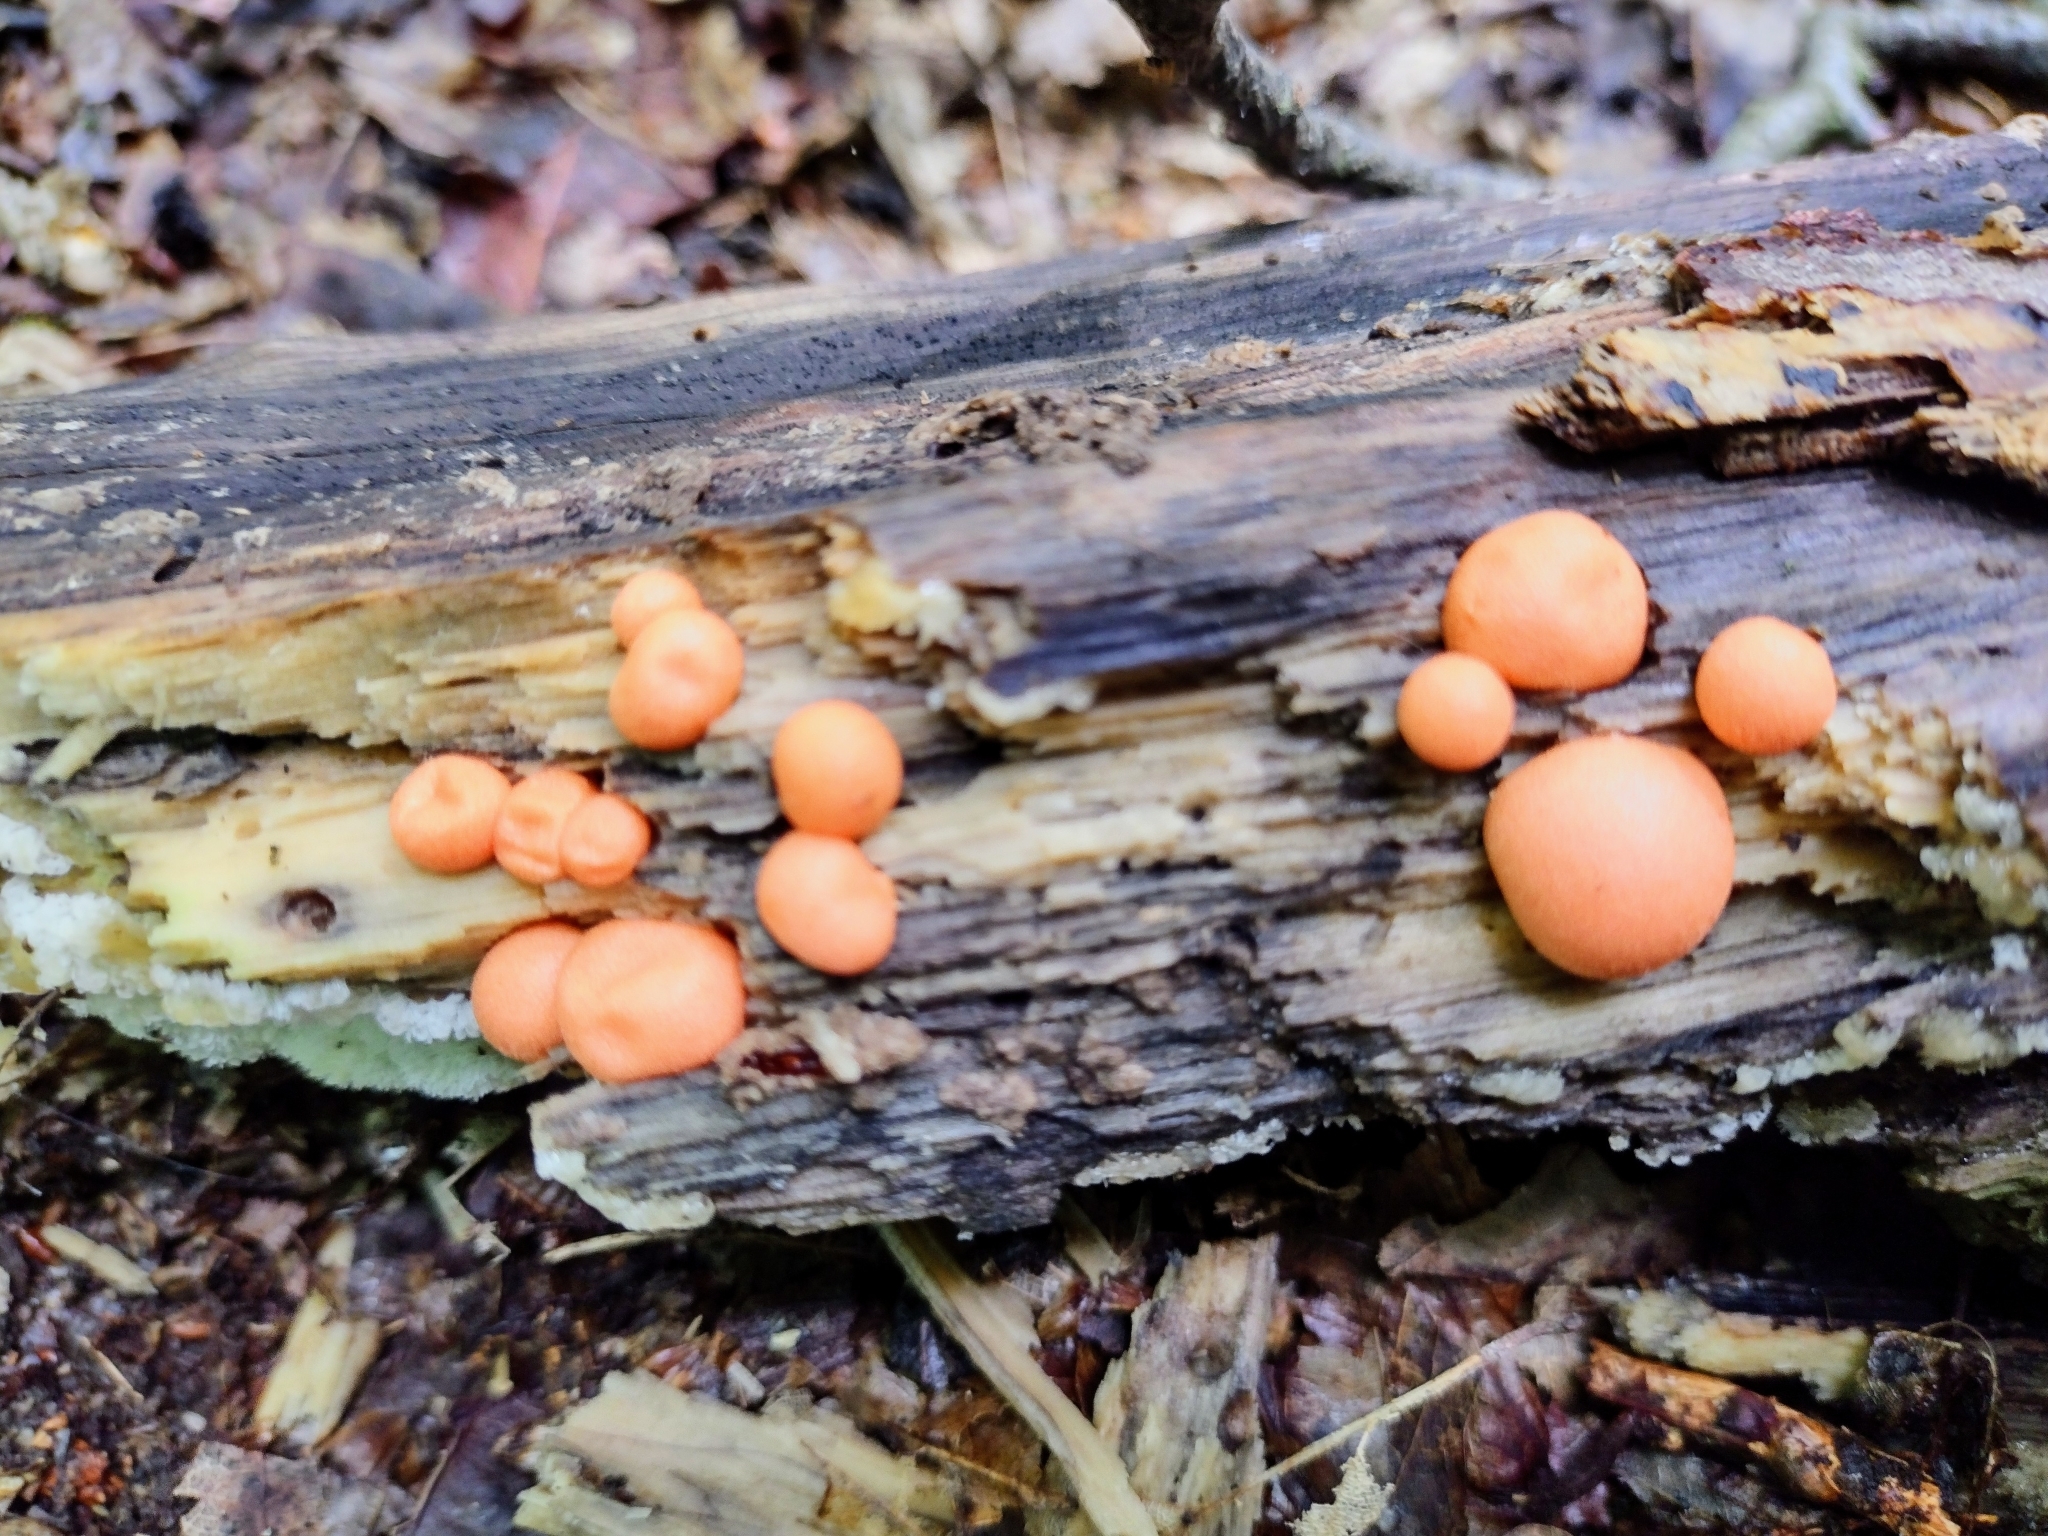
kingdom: Protozoa
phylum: Mycetozoa
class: Myxomycetes
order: Cribrariales
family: Tubiferaceae
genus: Lycogala
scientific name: Lycogala epidendrum
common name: Wolf's milk
